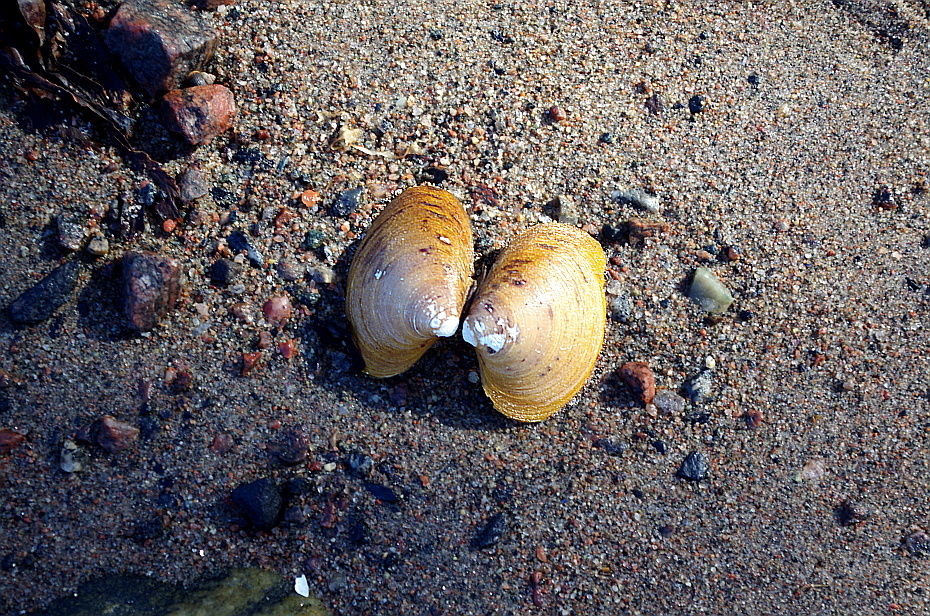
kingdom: Animalia
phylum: Mollusca
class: Bivalvia
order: Carditida
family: Astartidae
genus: Astarte
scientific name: Astarte borealis
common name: Boreal tridonta
